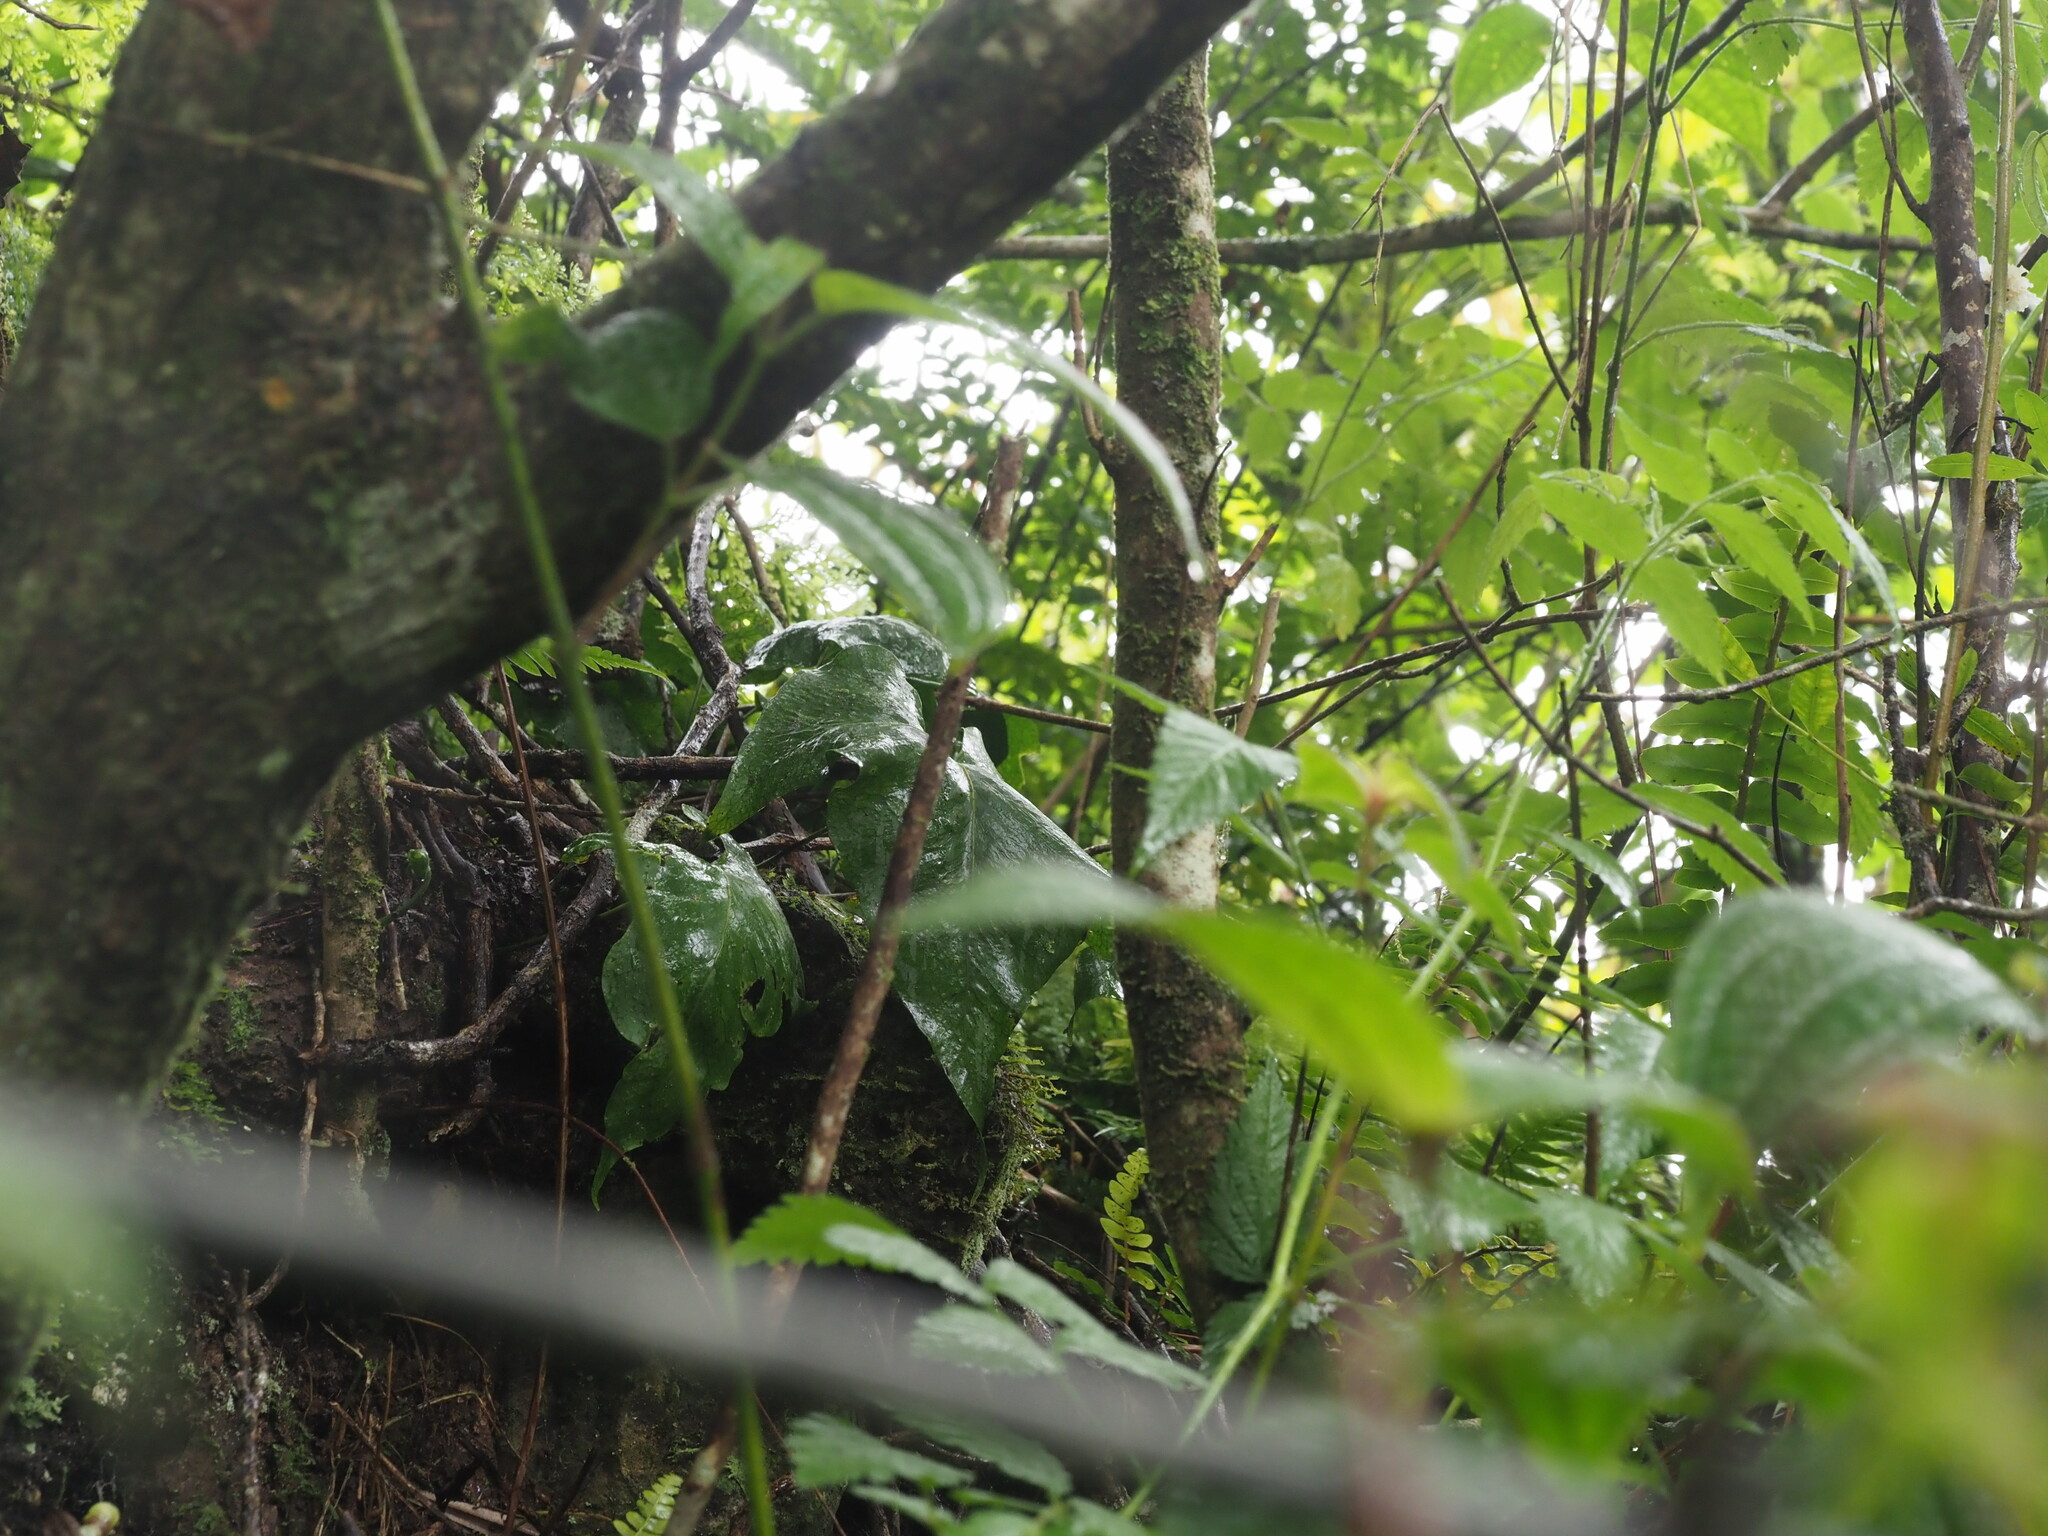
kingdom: Plantae
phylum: Tracheophyta
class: Polypodiopsida
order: Polypodiales
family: Polypodiaceae
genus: Microsorum
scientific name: Microsorum spectrum
